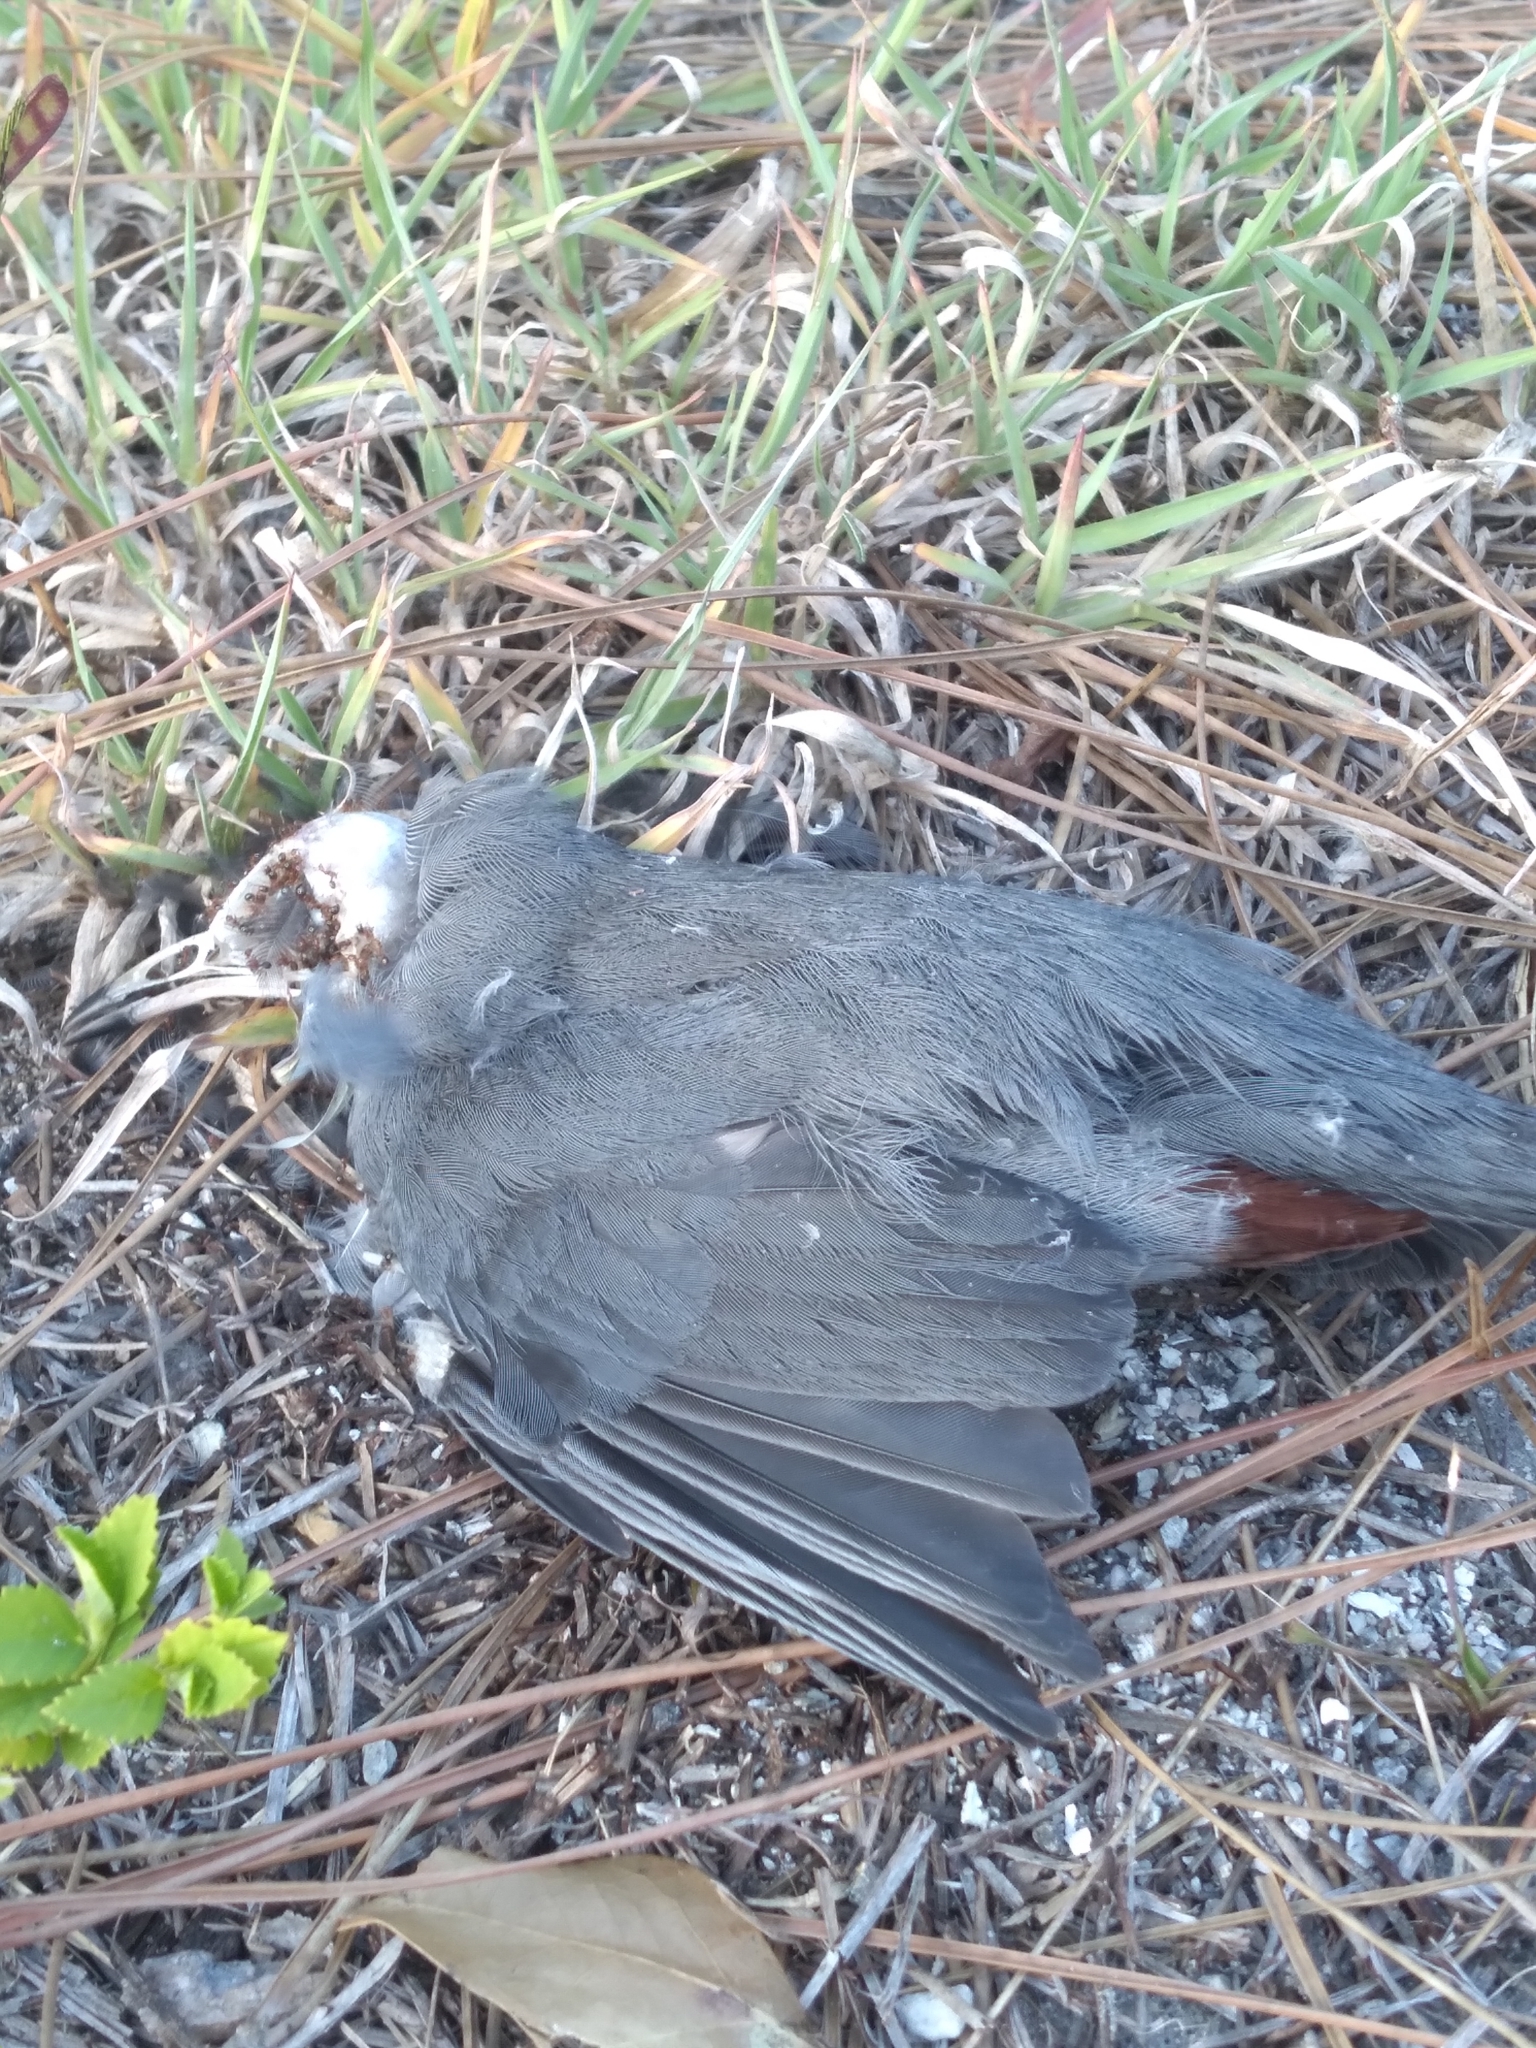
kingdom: Animalia
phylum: Chordata
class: Aves
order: Passeriformes
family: Mimidae
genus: Dumetella
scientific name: Dumetella carolinensis
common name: Gray catbird
